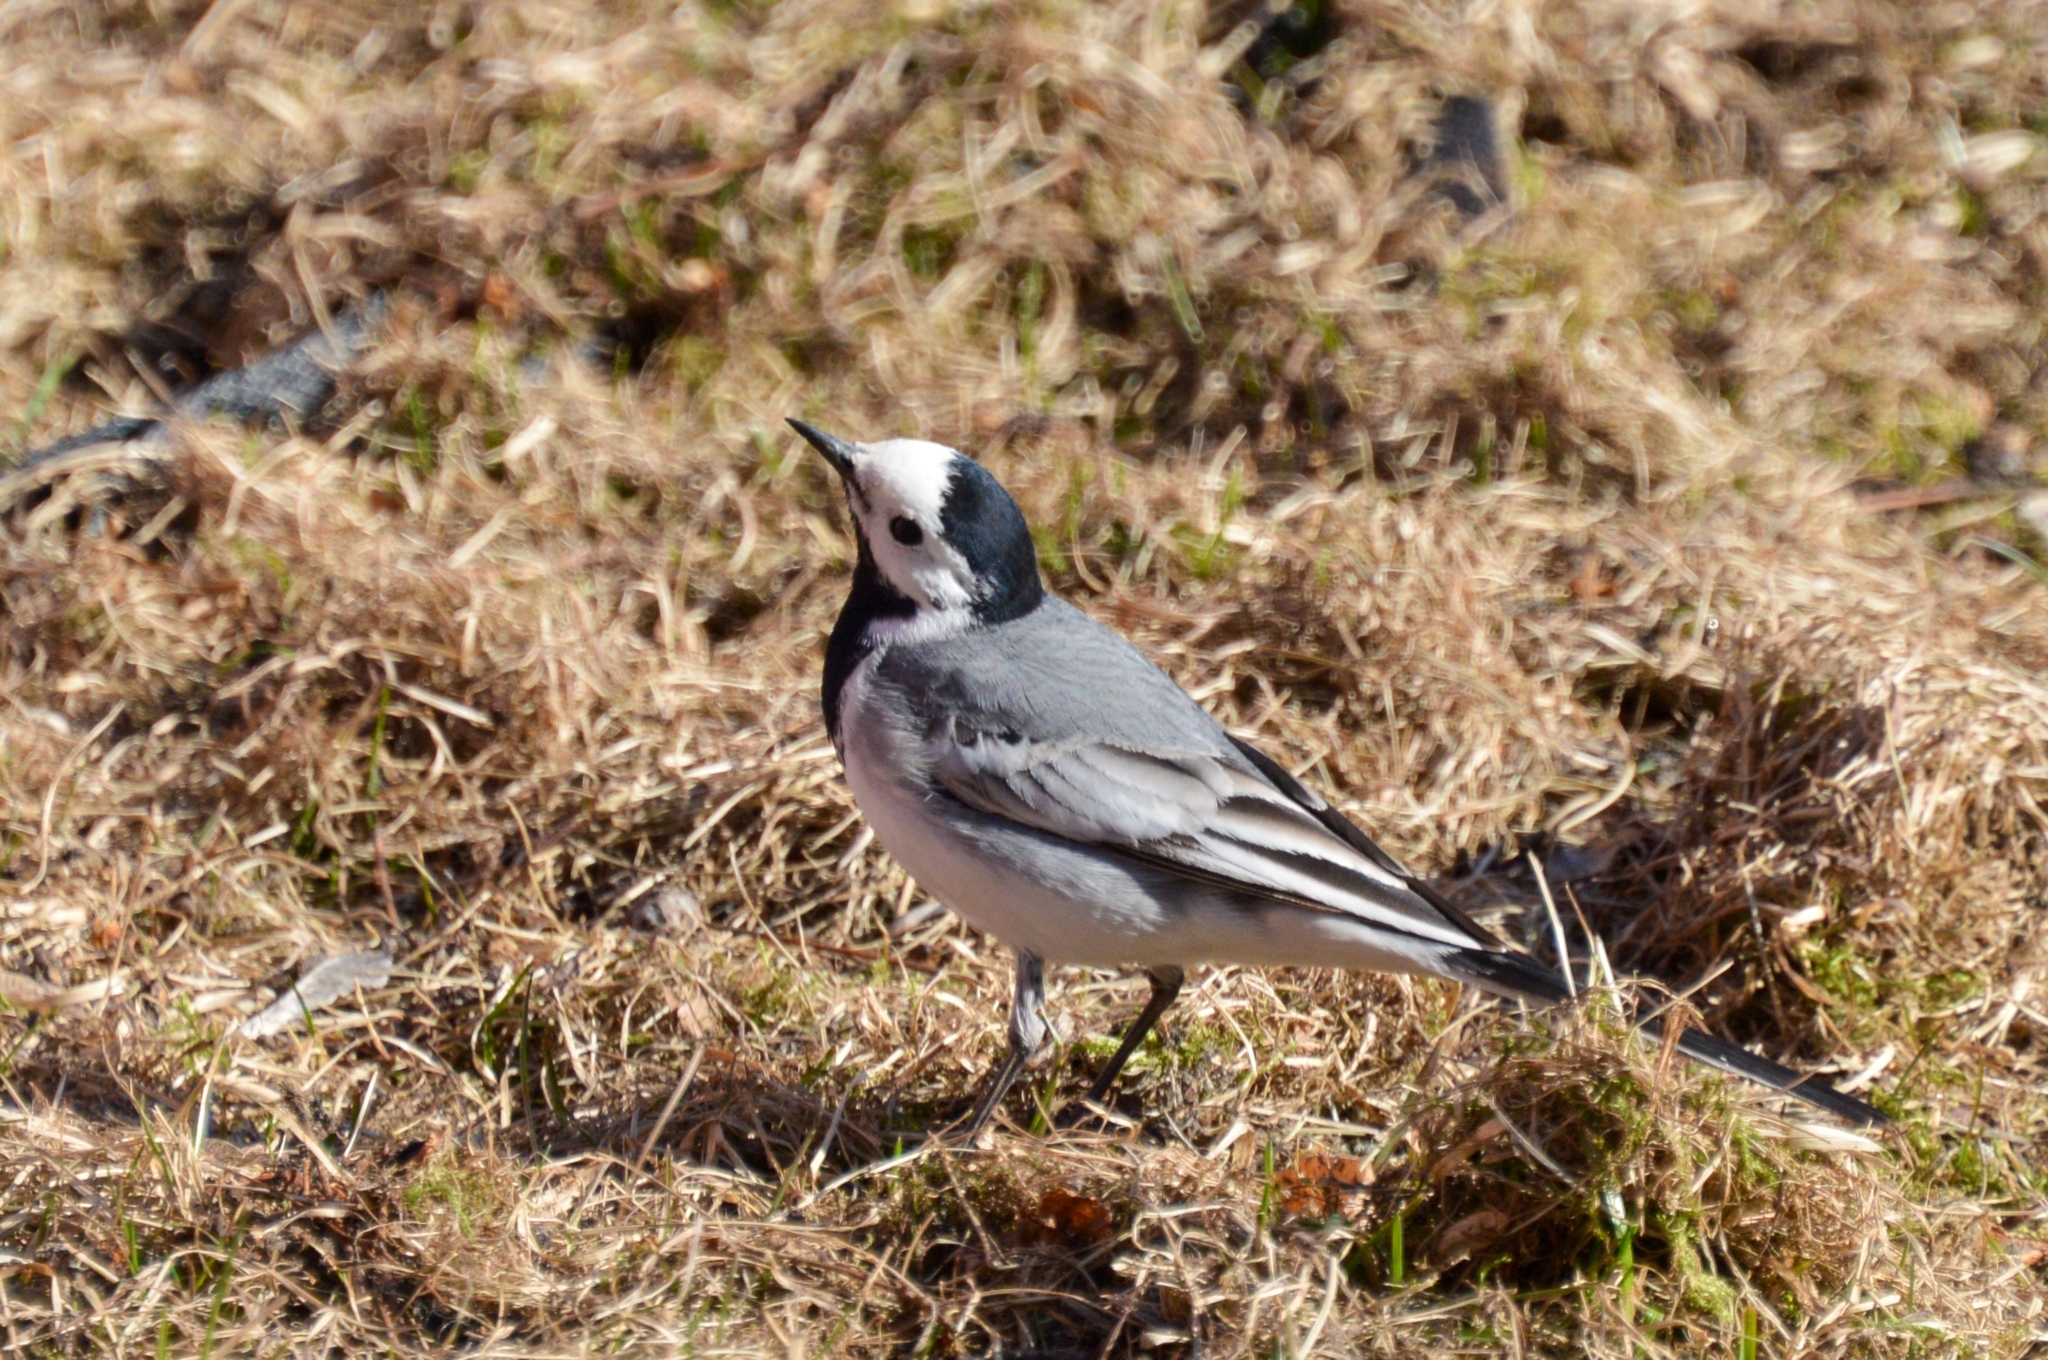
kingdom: Animalia
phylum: Chordata
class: Aves
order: Passeriformes
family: Motacillidae
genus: Motacilla
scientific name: Motacilla alba
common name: White wagtail
